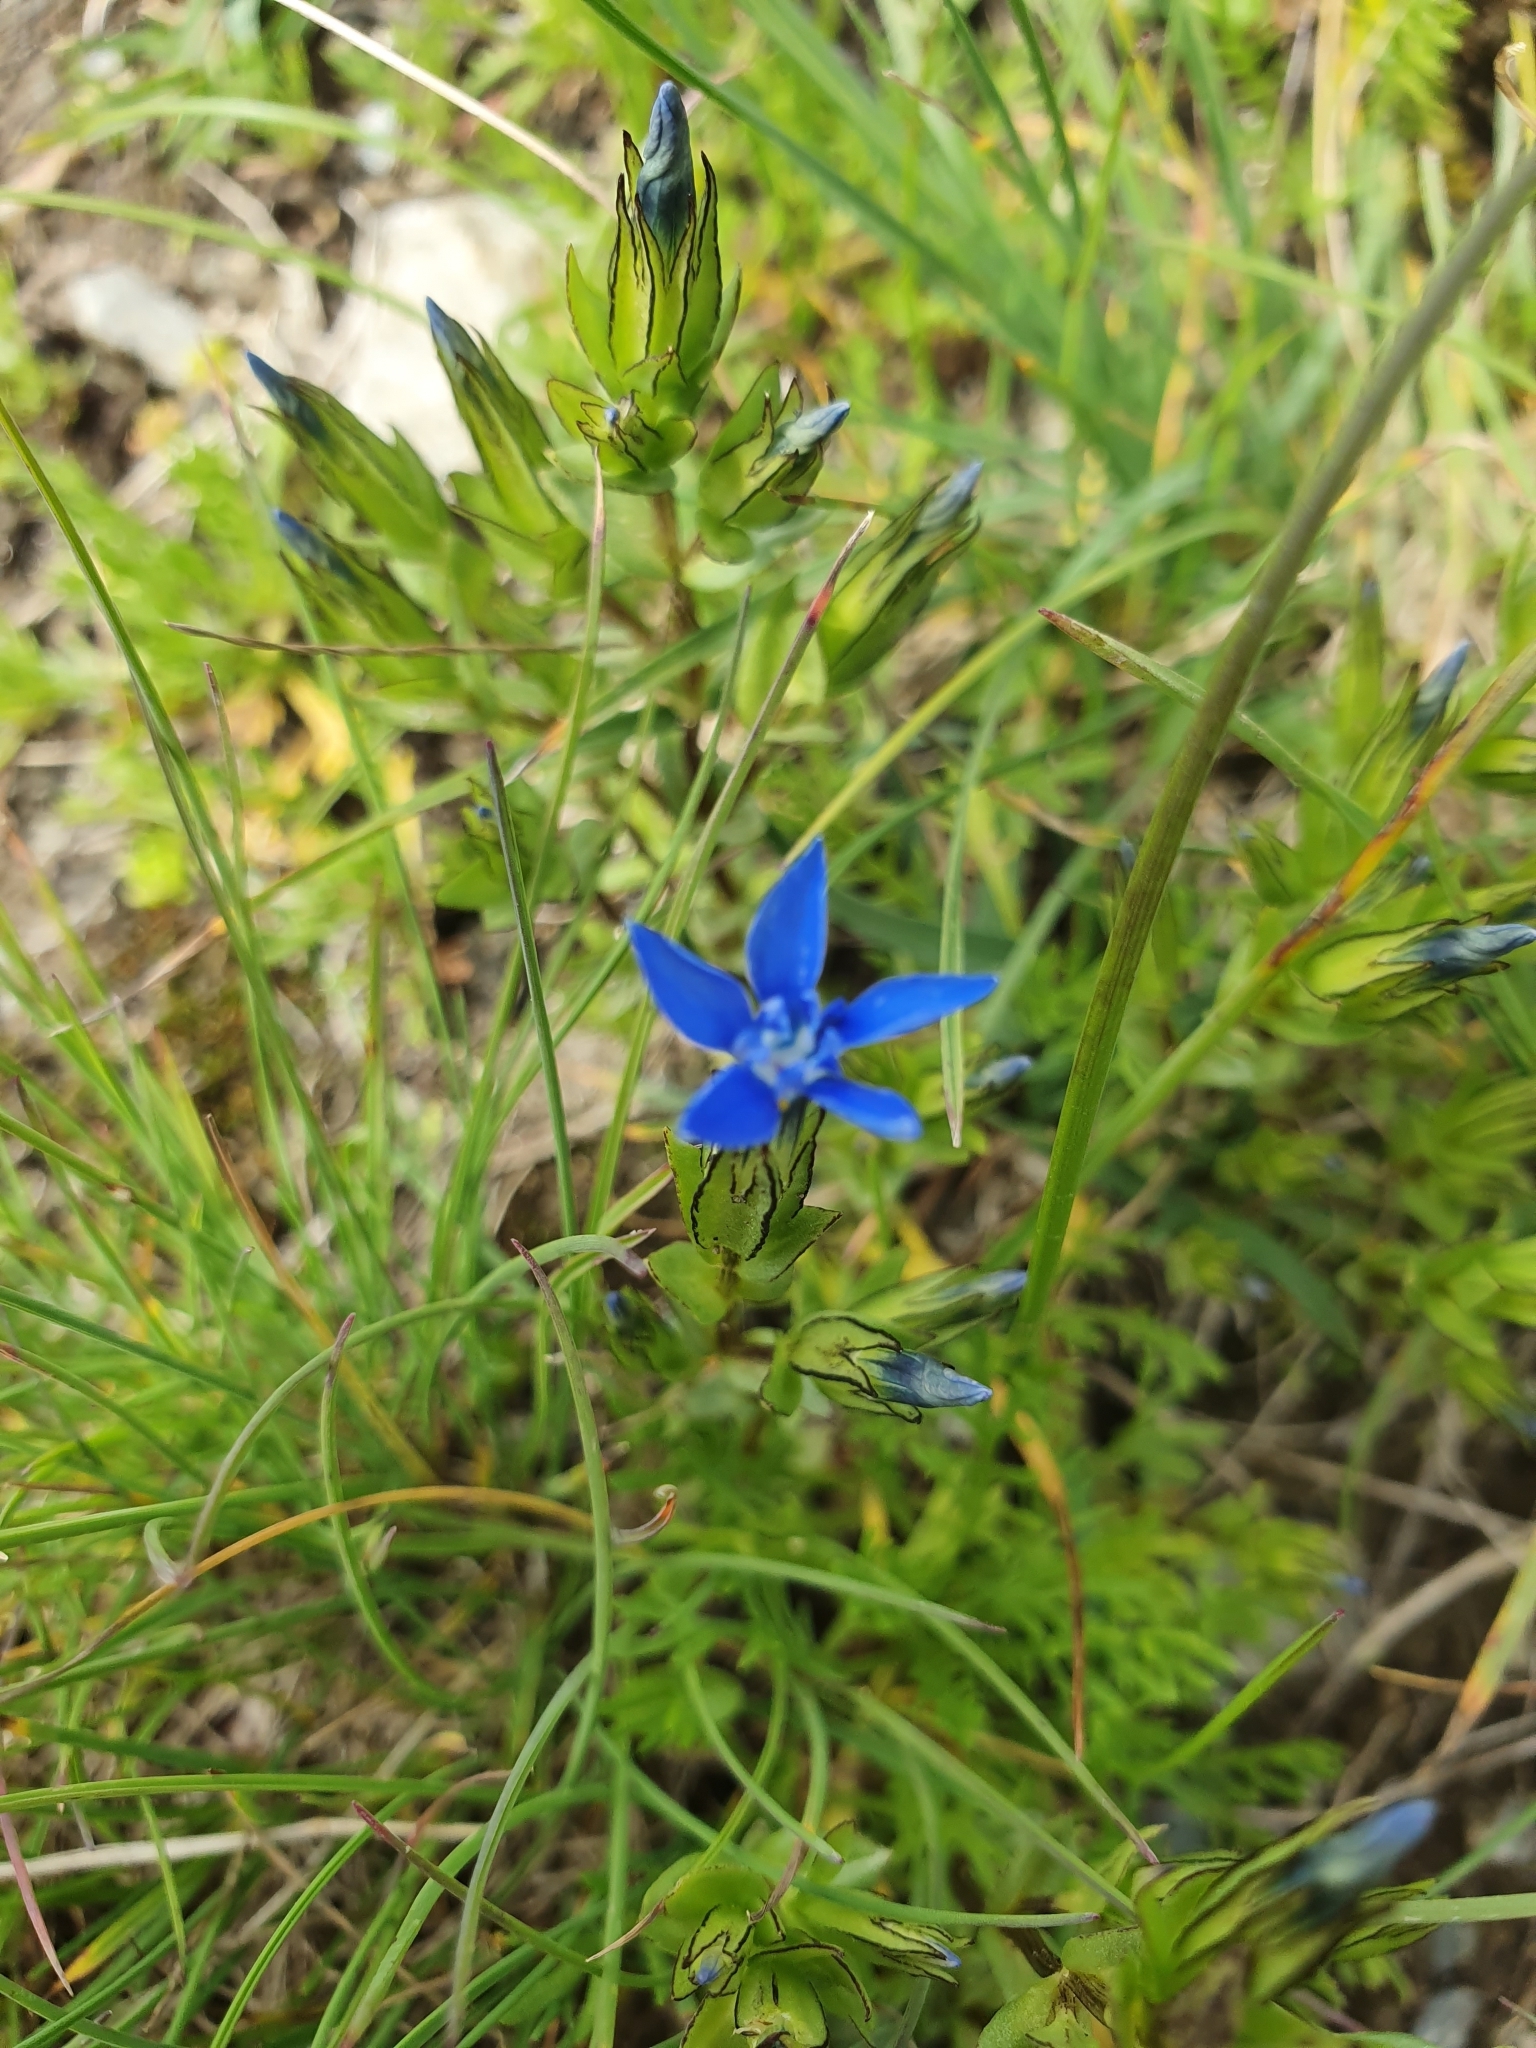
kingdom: Plantae
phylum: Tracheophyta
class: Magnoliopsida
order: Gentianales
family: Gentianaceae
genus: Gentiana
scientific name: Gentiana nivalis
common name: Alpine gentian
